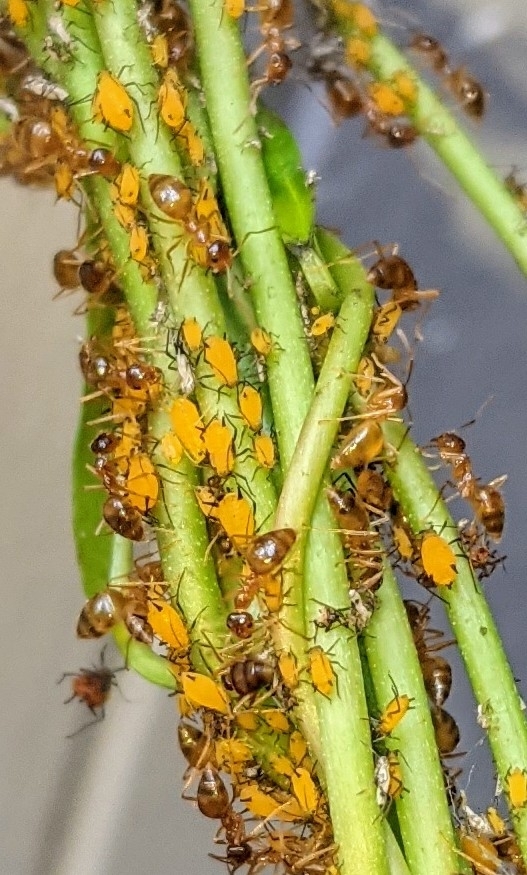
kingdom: Animalia
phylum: Arthropoda
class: Insecta
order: Hemiptera
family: Aphididae
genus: Aphis
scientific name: Aphis nerii
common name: Oleander aphid
